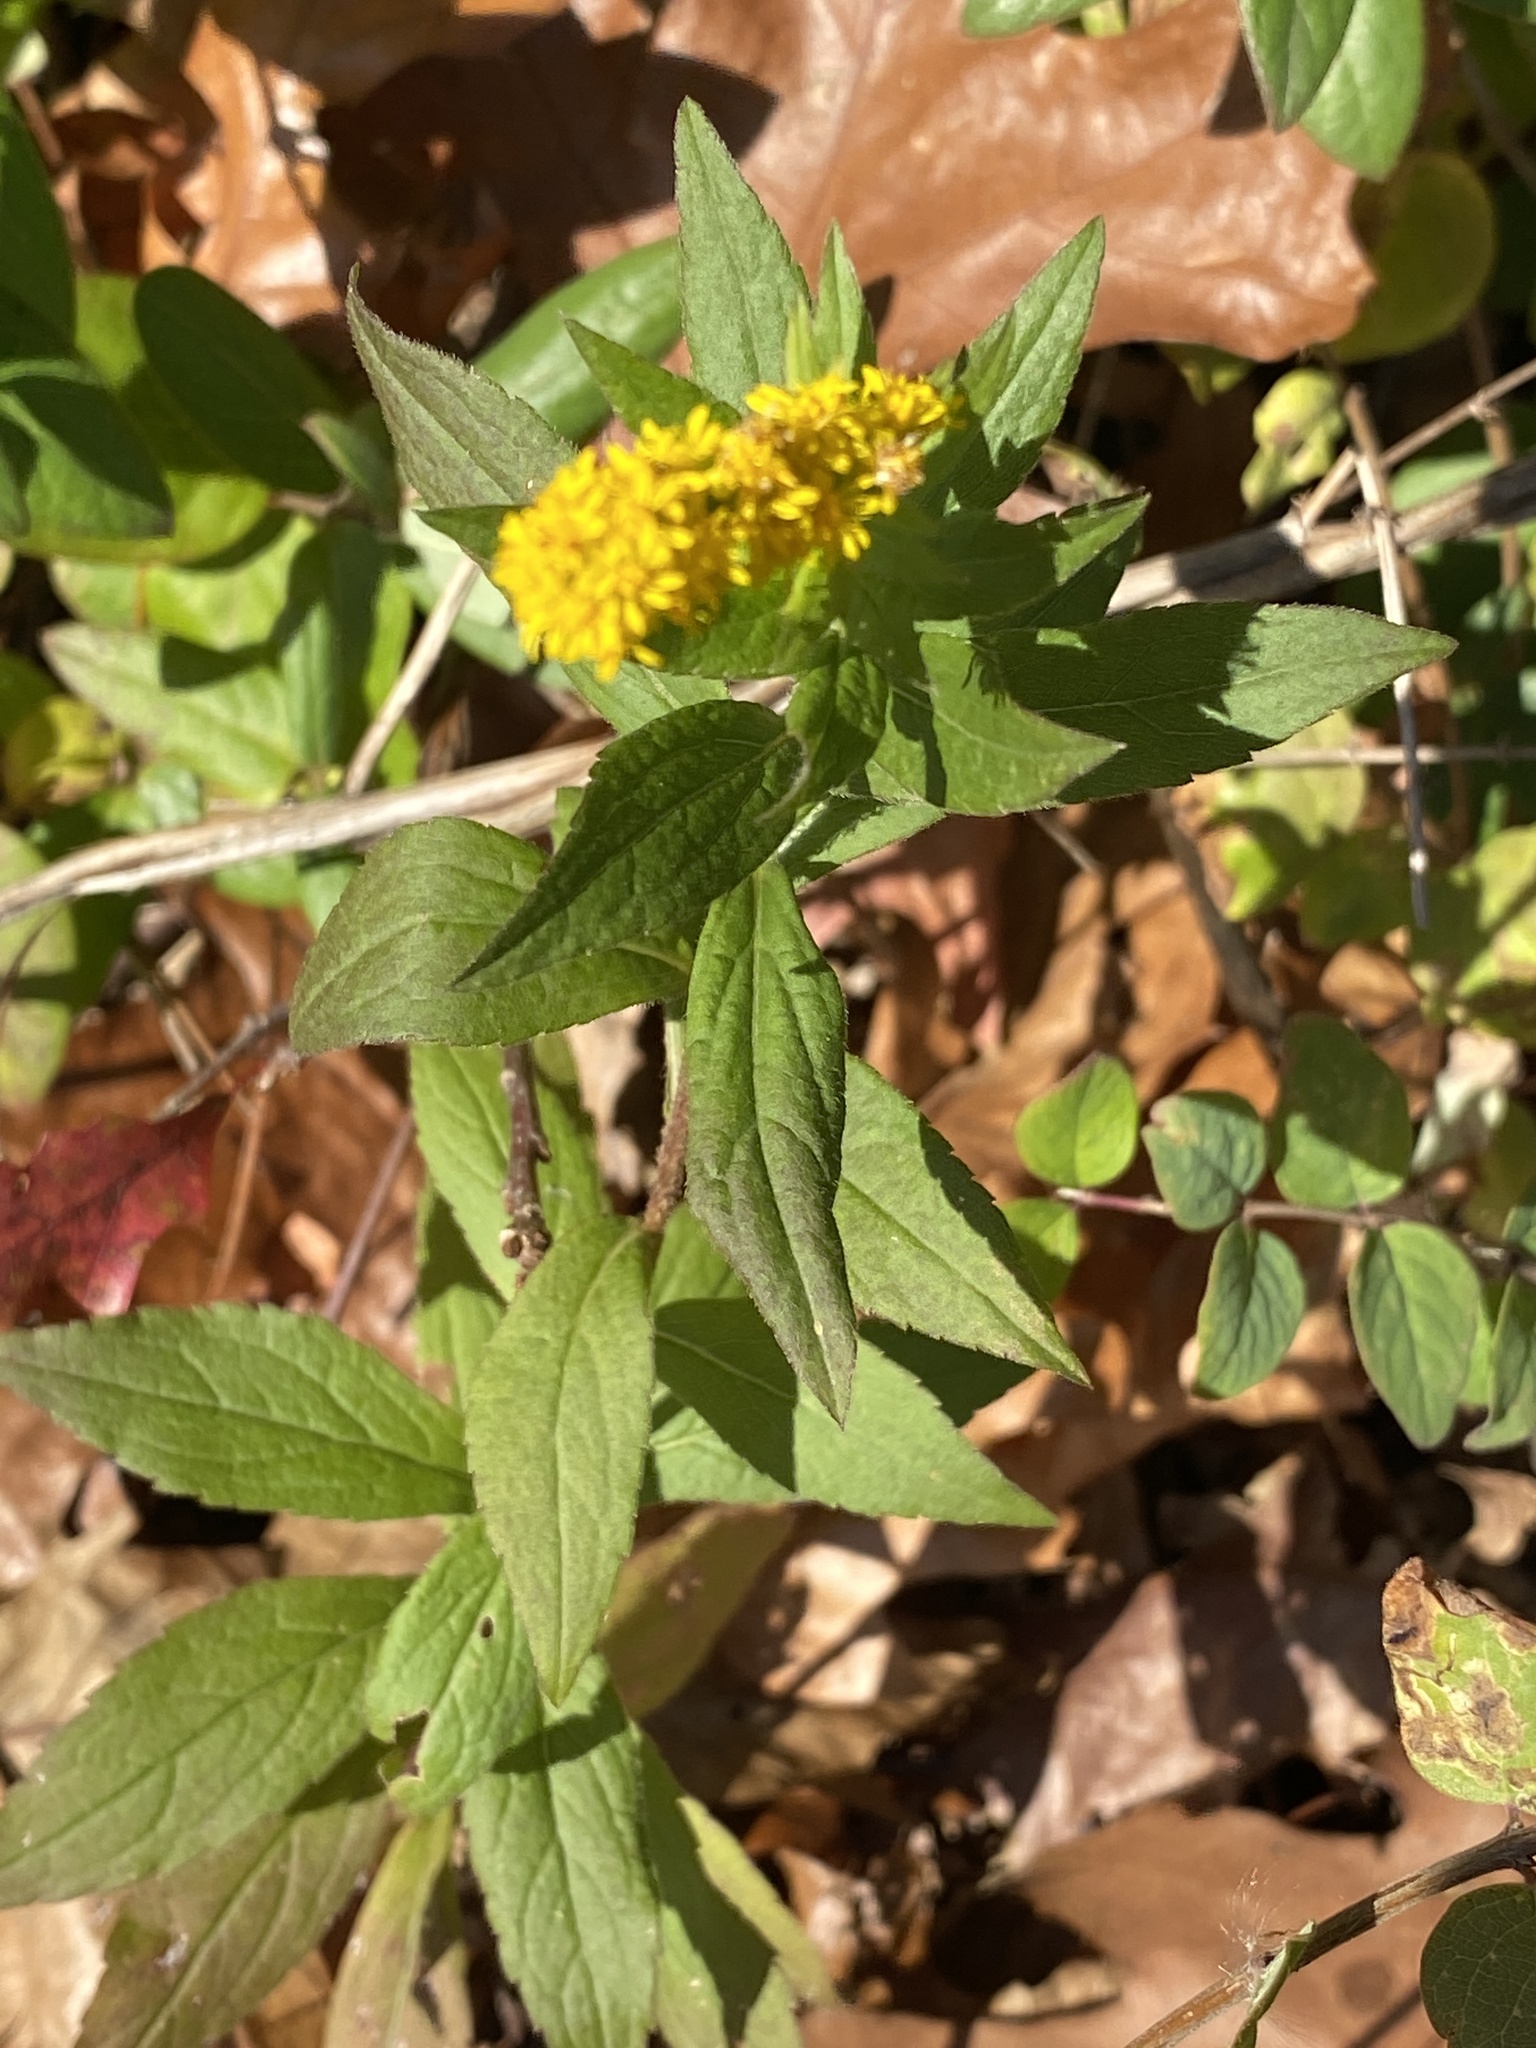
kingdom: Plantae
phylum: Tracheophyta
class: Magnoliopsida
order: Asterales
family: Asteraceae
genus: Solidago
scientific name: Solidago rugosa
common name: Rough-stemmed goldenrod
